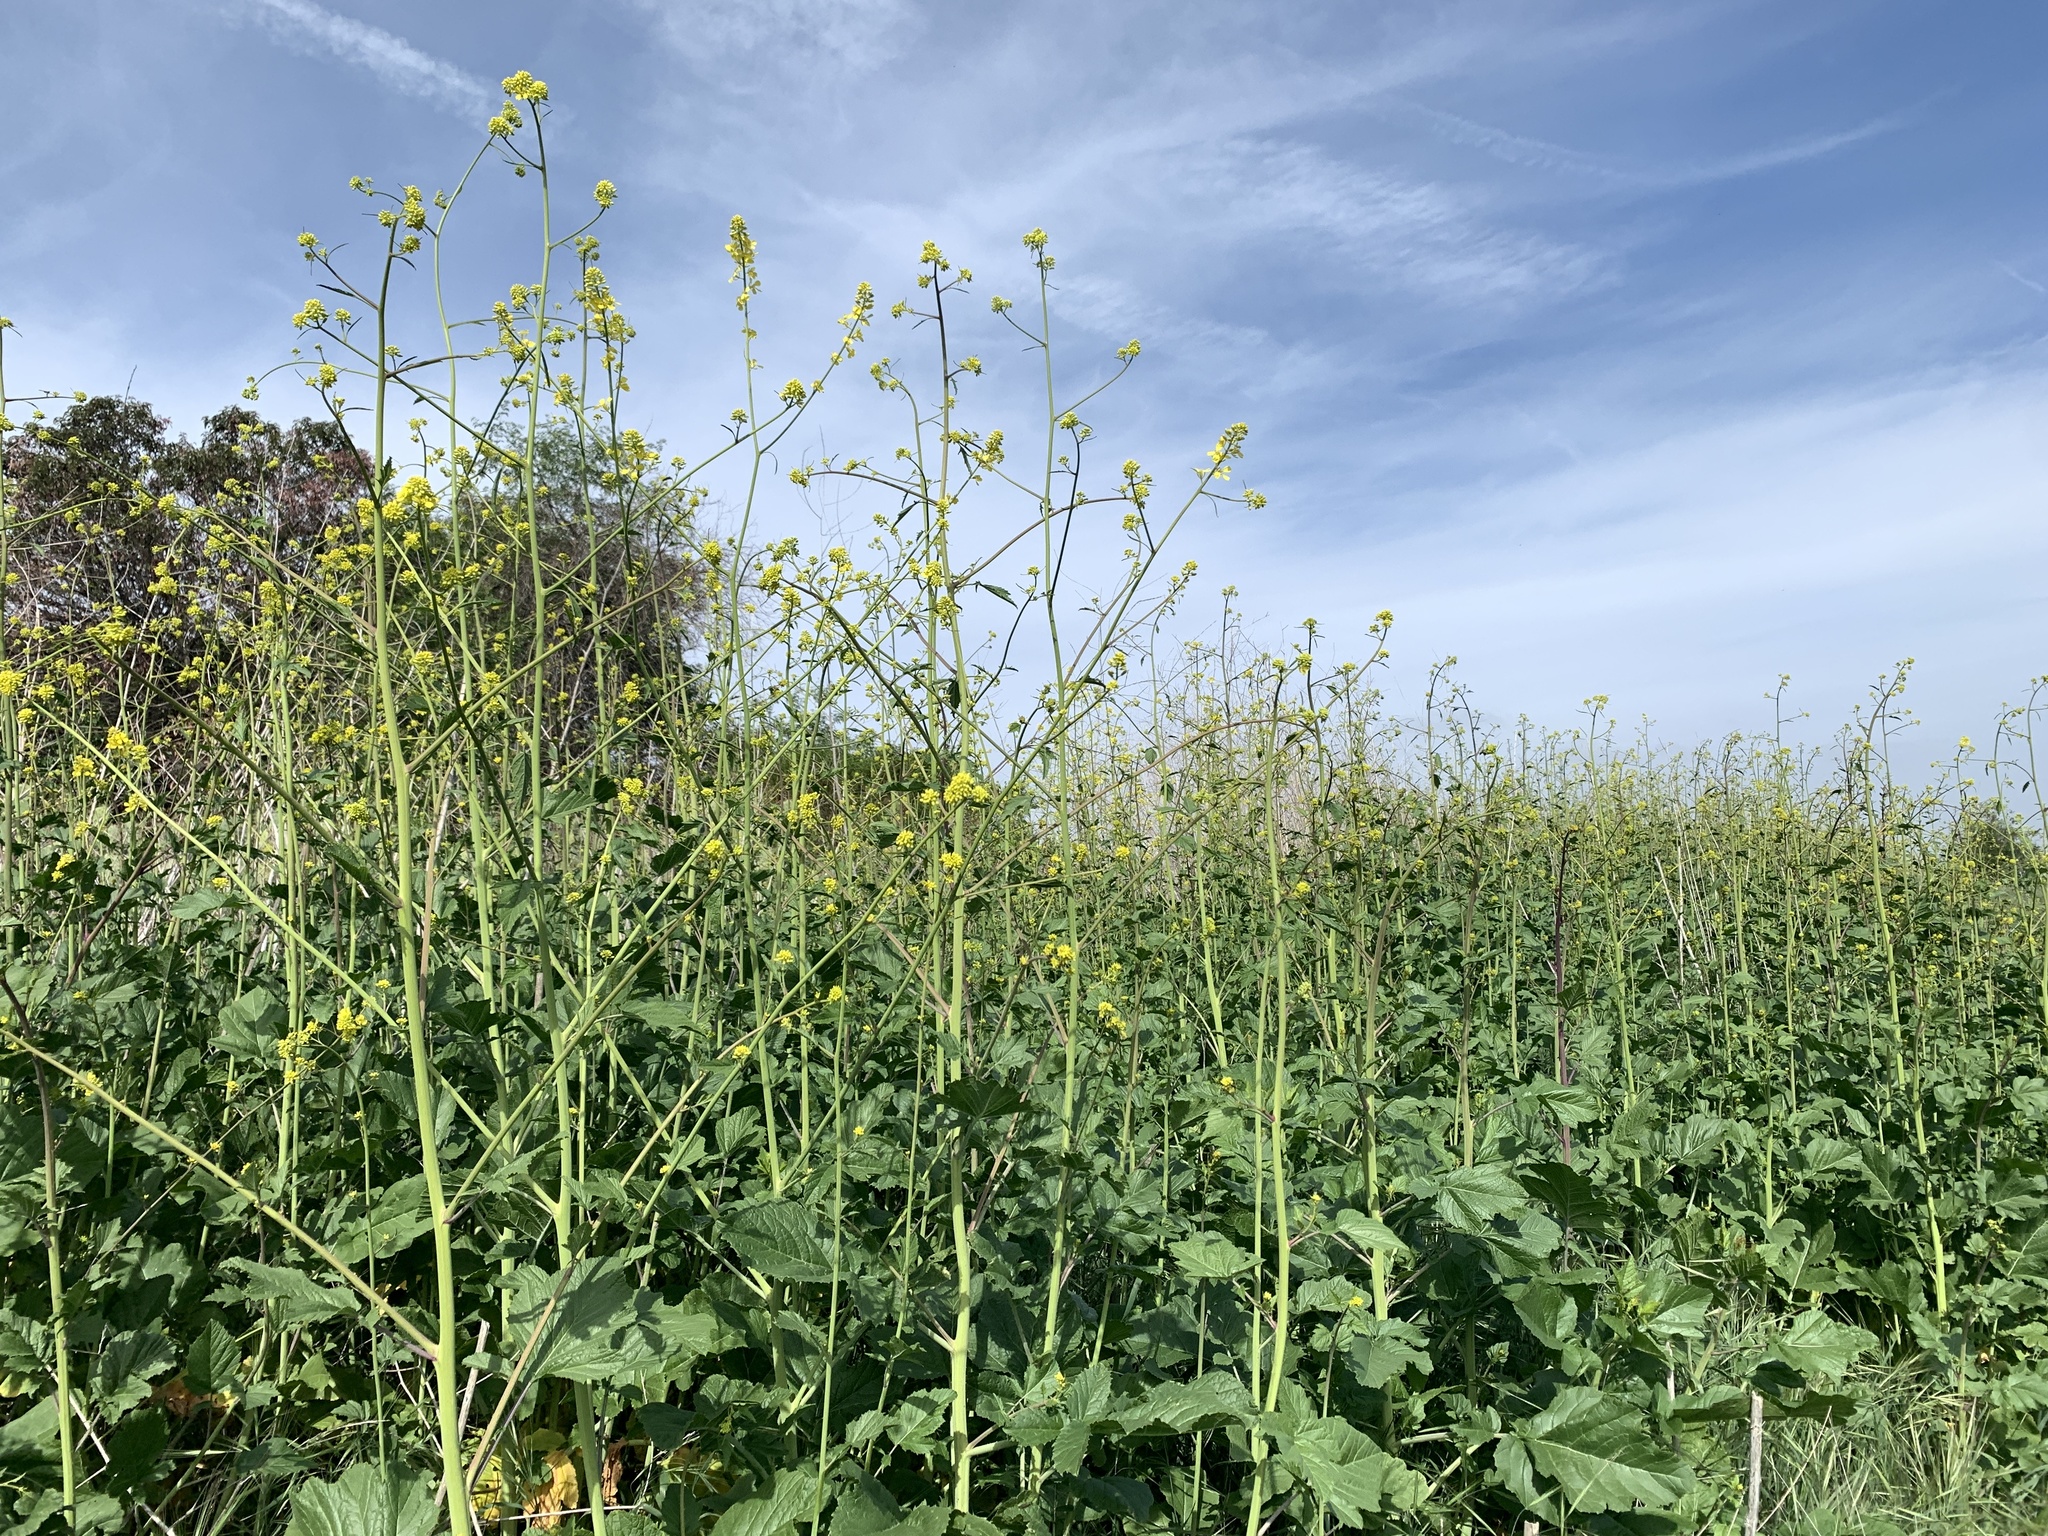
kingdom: Plantae
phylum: Tracheophyta
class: Magnoliopsida
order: Brassicales
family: Brassicaceae
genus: Brassica
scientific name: Brassica nigra
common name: Black mustard
